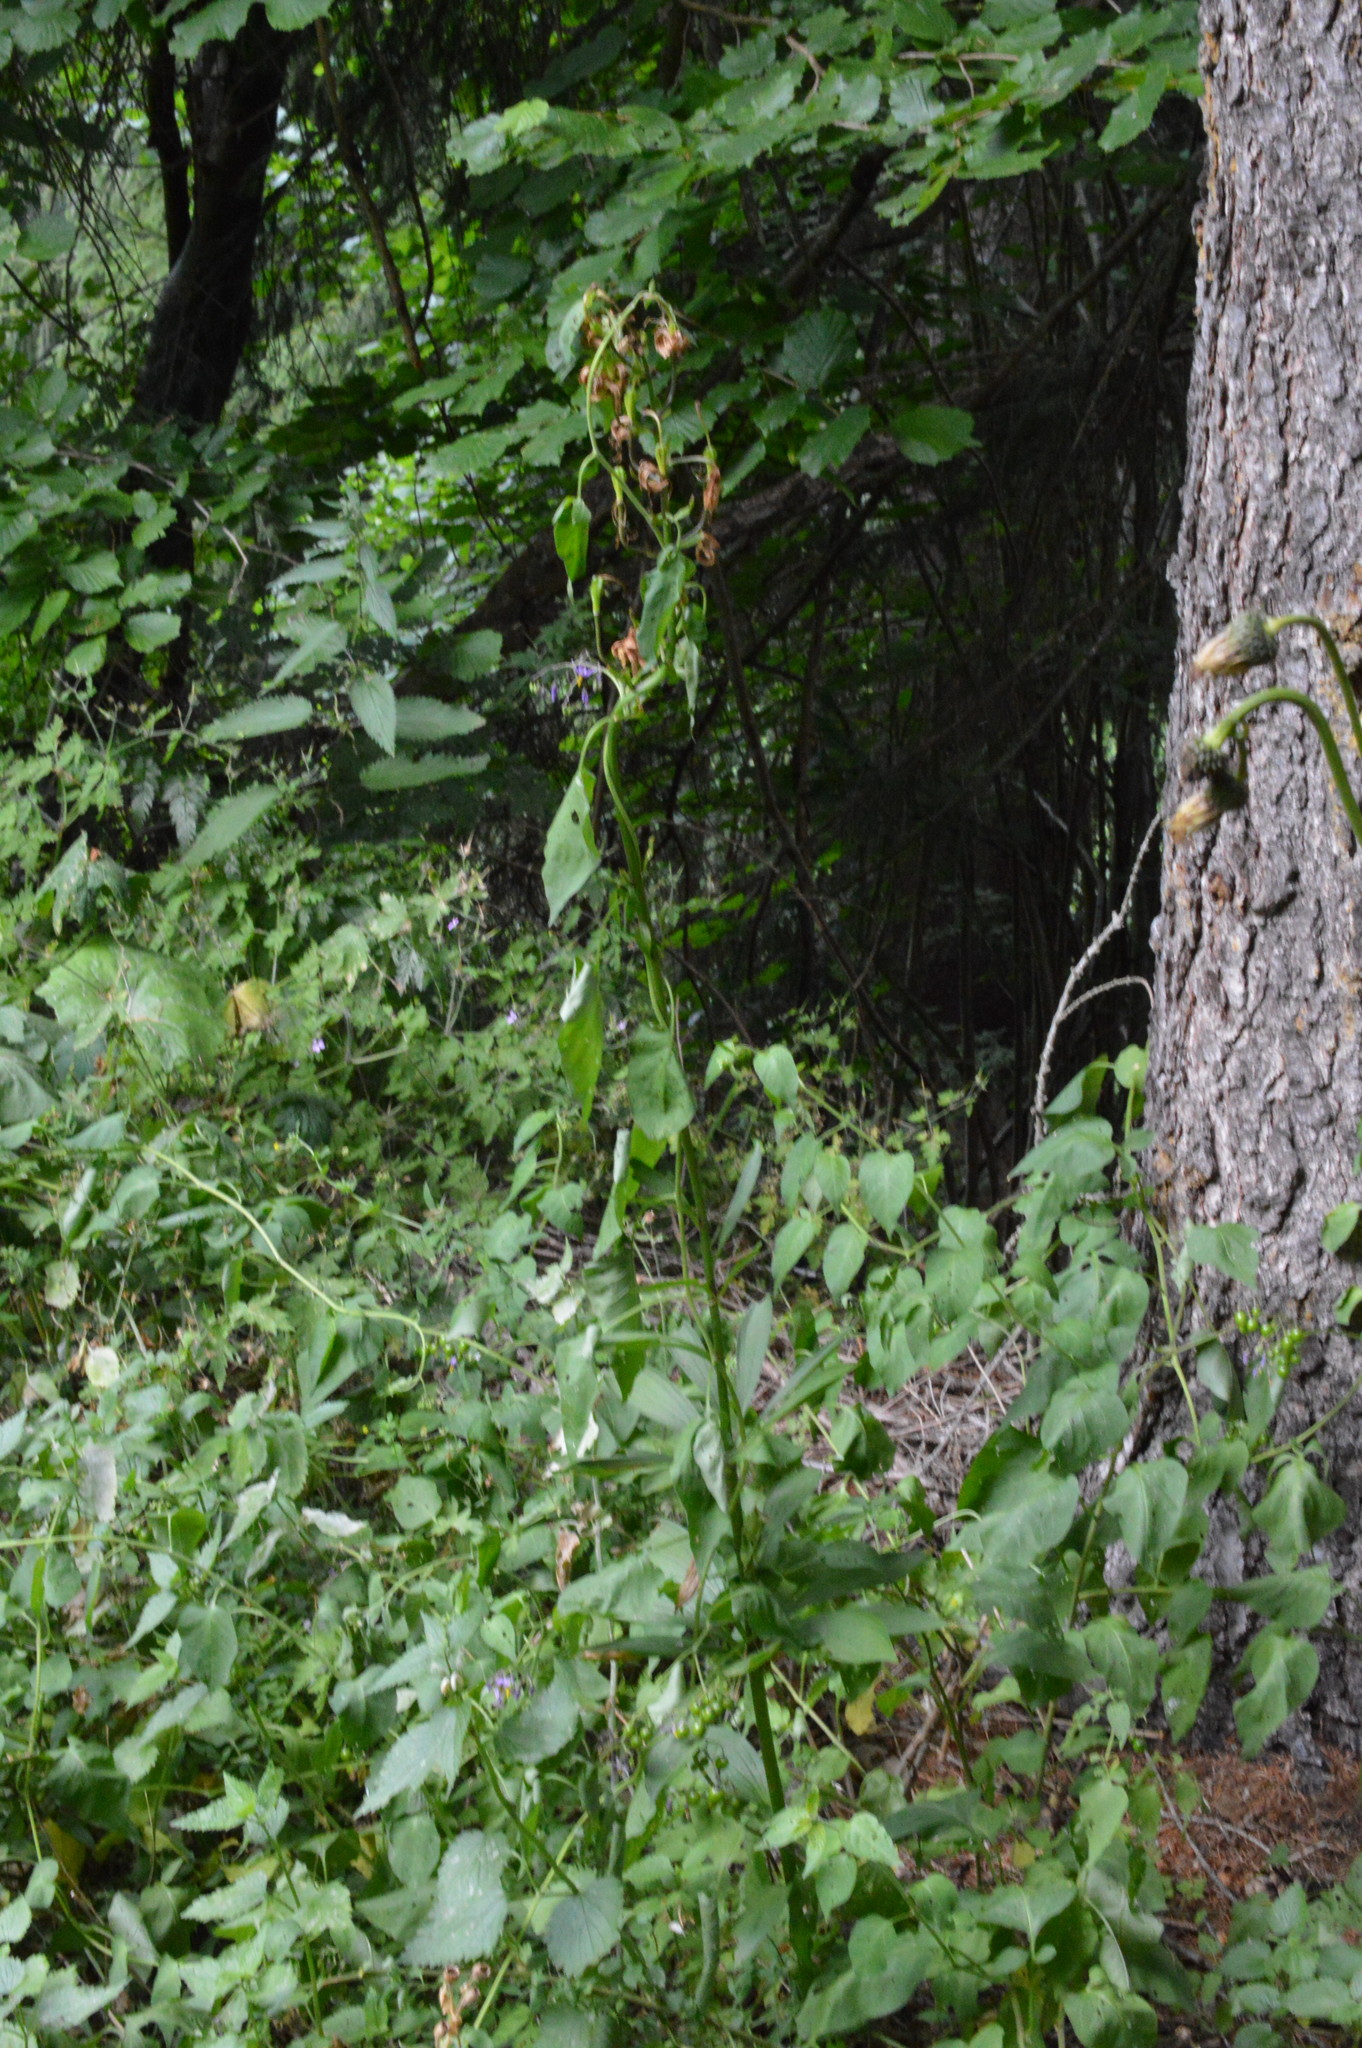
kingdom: Plantae
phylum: Tracheophyta
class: Magnoliopsida
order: Solanales
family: Solanaceae
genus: Solanum
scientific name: Solanum dulcamara
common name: Climbing nightshade
